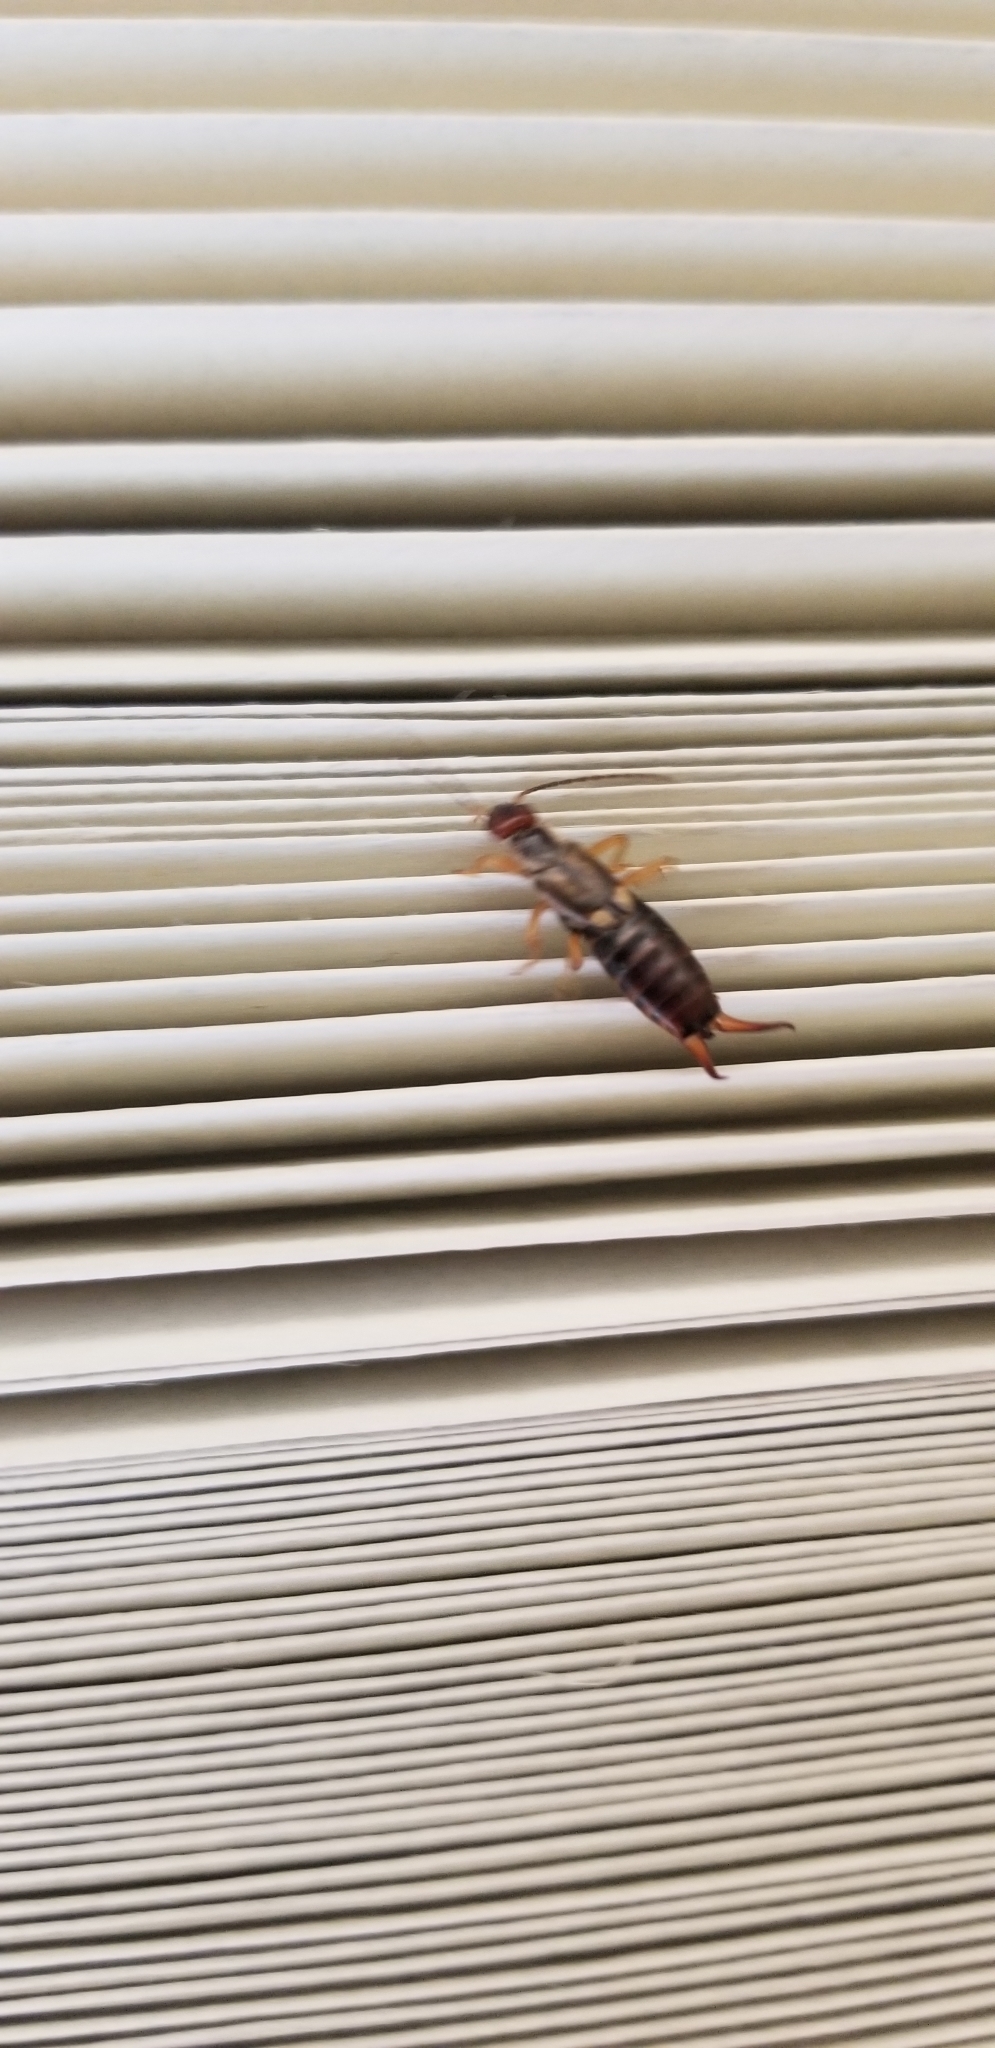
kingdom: Animalia
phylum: Arthropoda
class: Insecta
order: Dermaptera
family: Forficulidae
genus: Forficula
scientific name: Forficula
